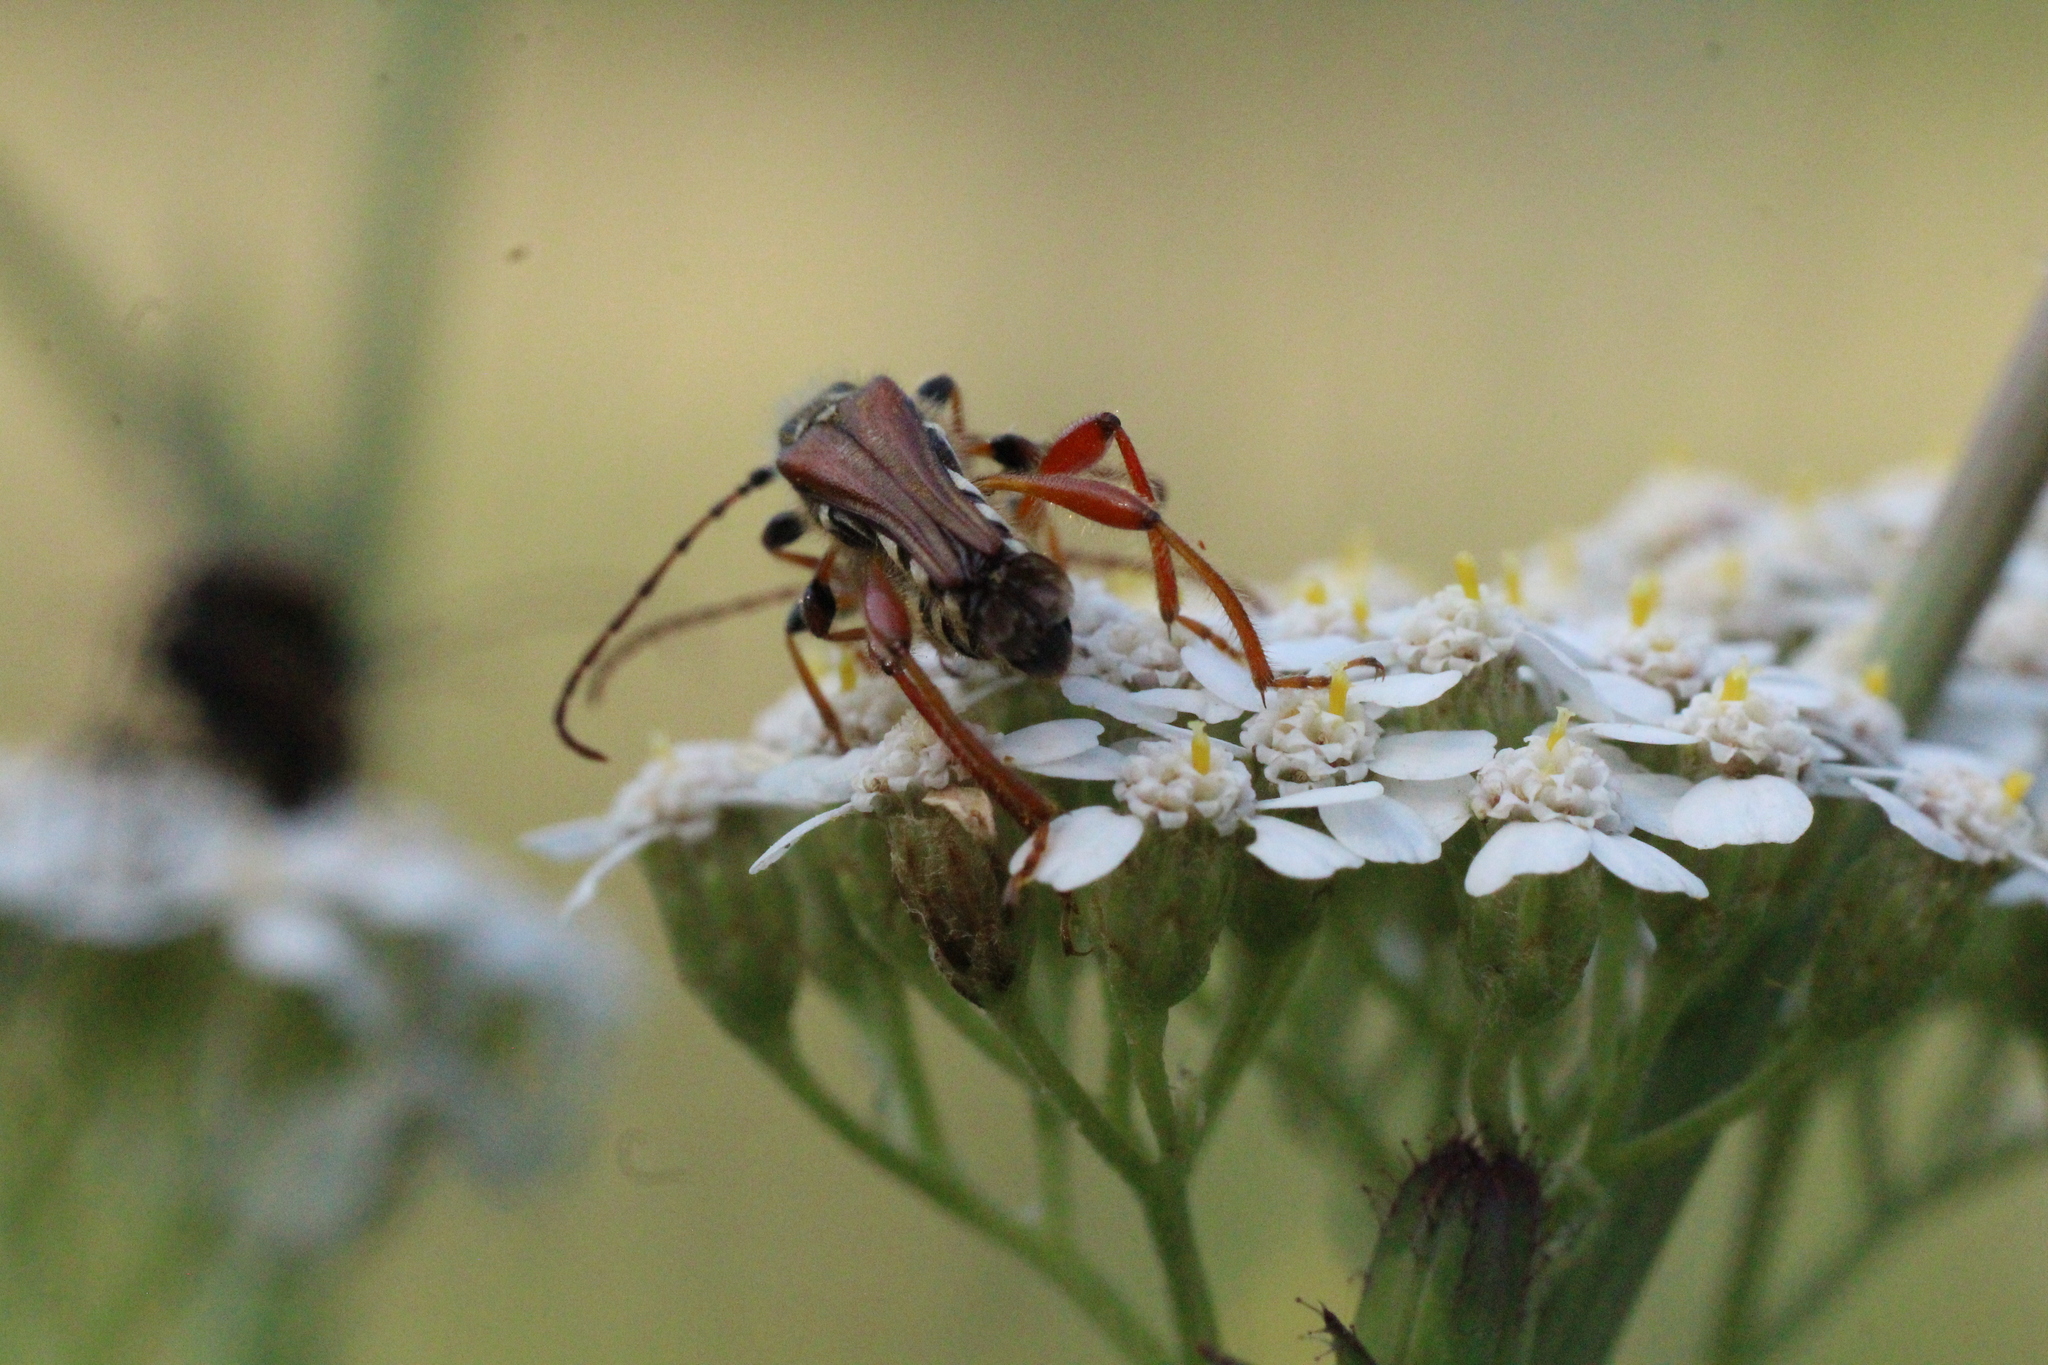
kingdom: Animalia
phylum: Arthropoda
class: Insecta
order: Coleoptera
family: Cerambycidae
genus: Stenopterus
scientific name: Stenopterus rufus
